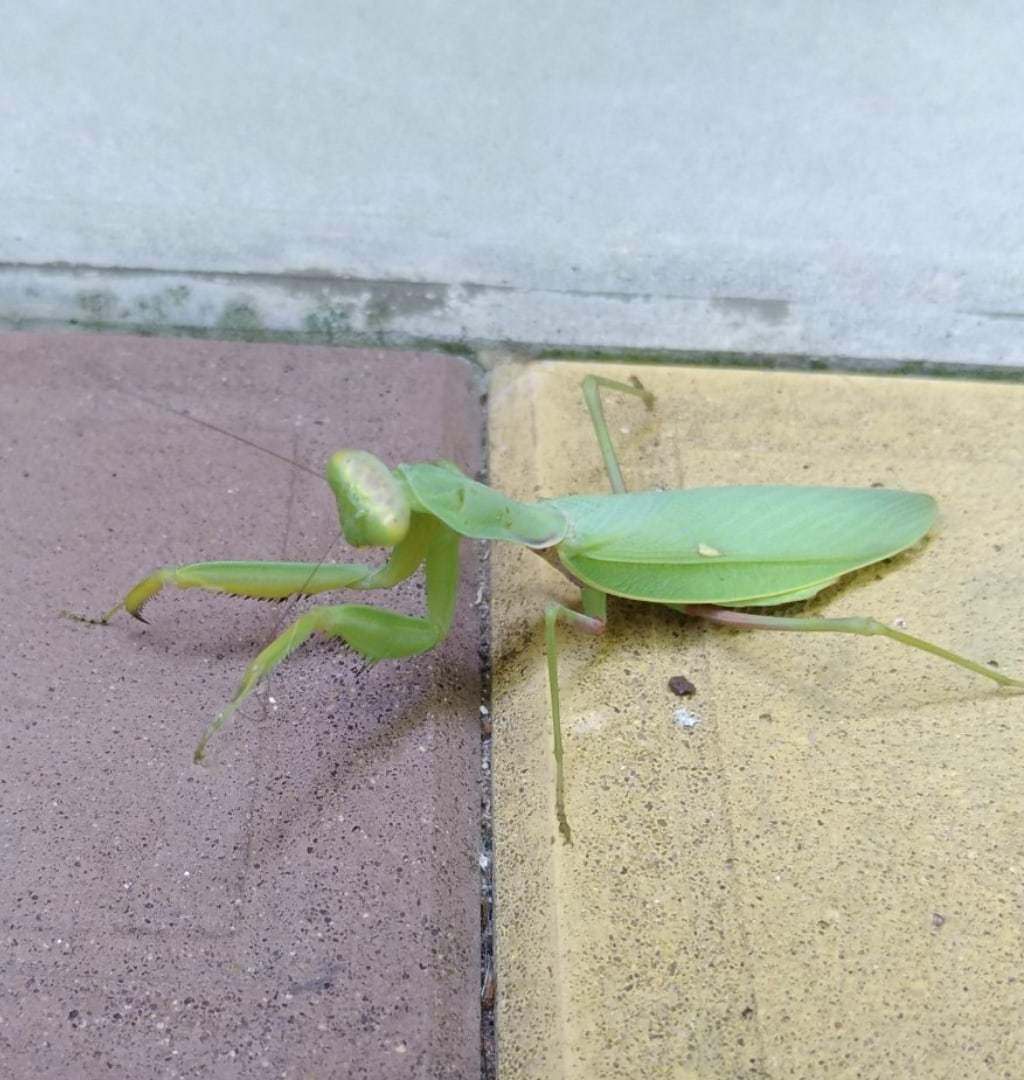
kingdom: Animalia
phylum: Arthropoda
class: Insecta
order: Mantodea
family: Mantidae
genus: Hierodula
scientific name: Hierodula transcaucasica
